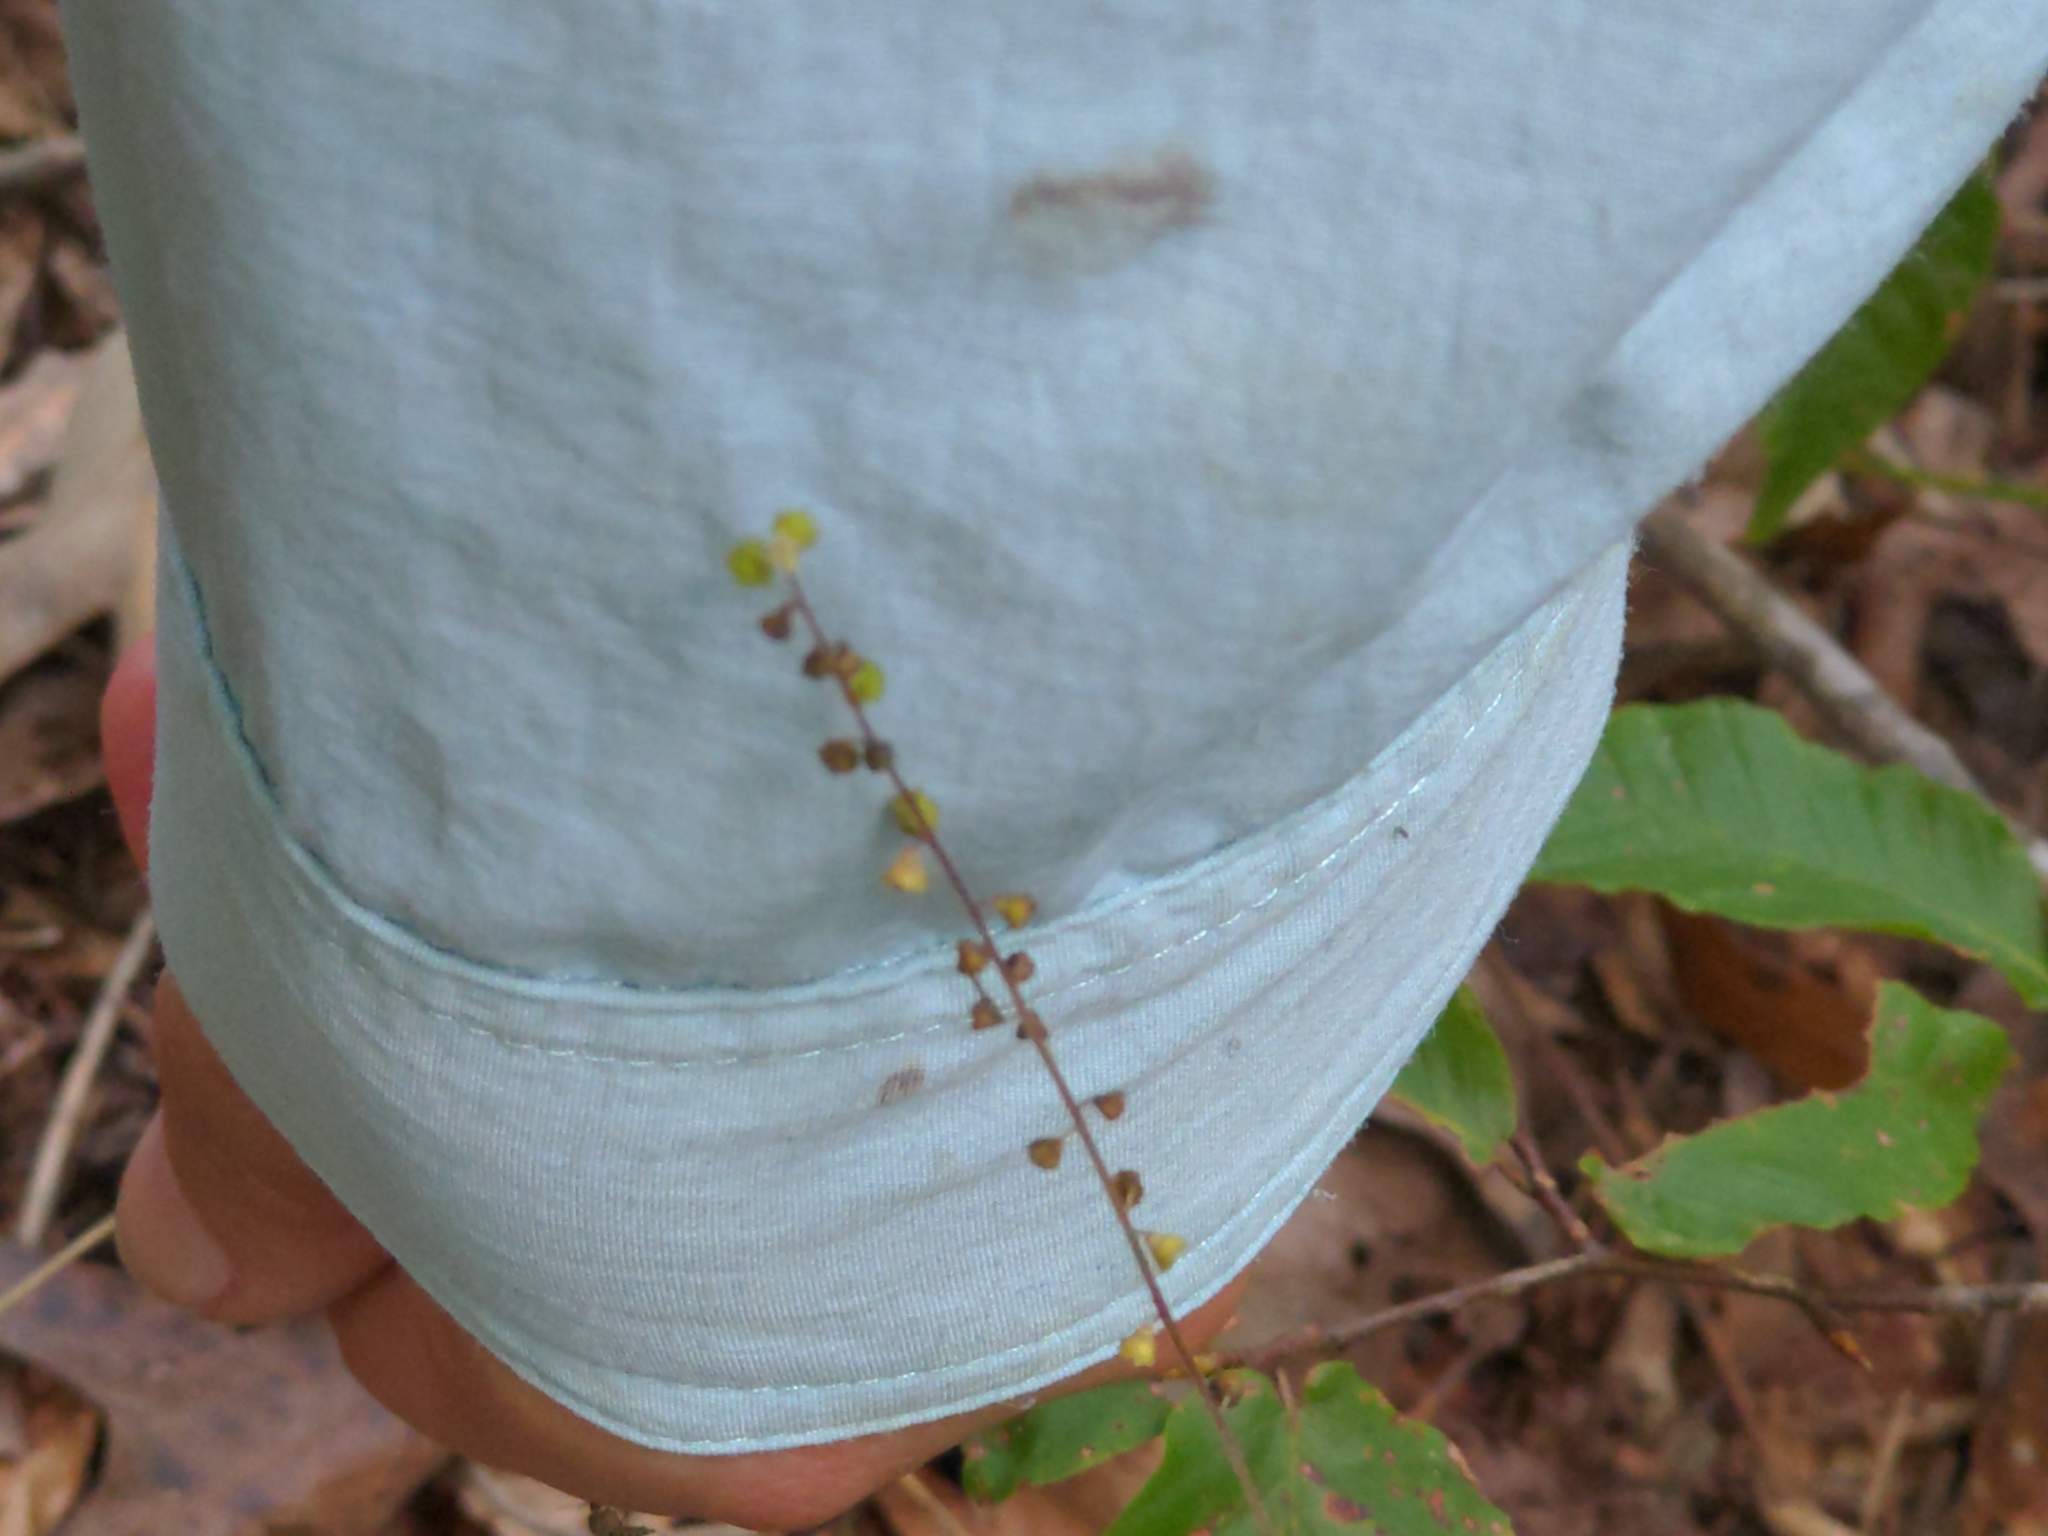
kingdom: Plantae
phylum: Tracheophyta
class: Magnoliopsida
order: Asterales
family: Asteraceae
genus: Ambrosia
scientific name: Ambrosia artemisiifolia
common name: Annual ragweed
